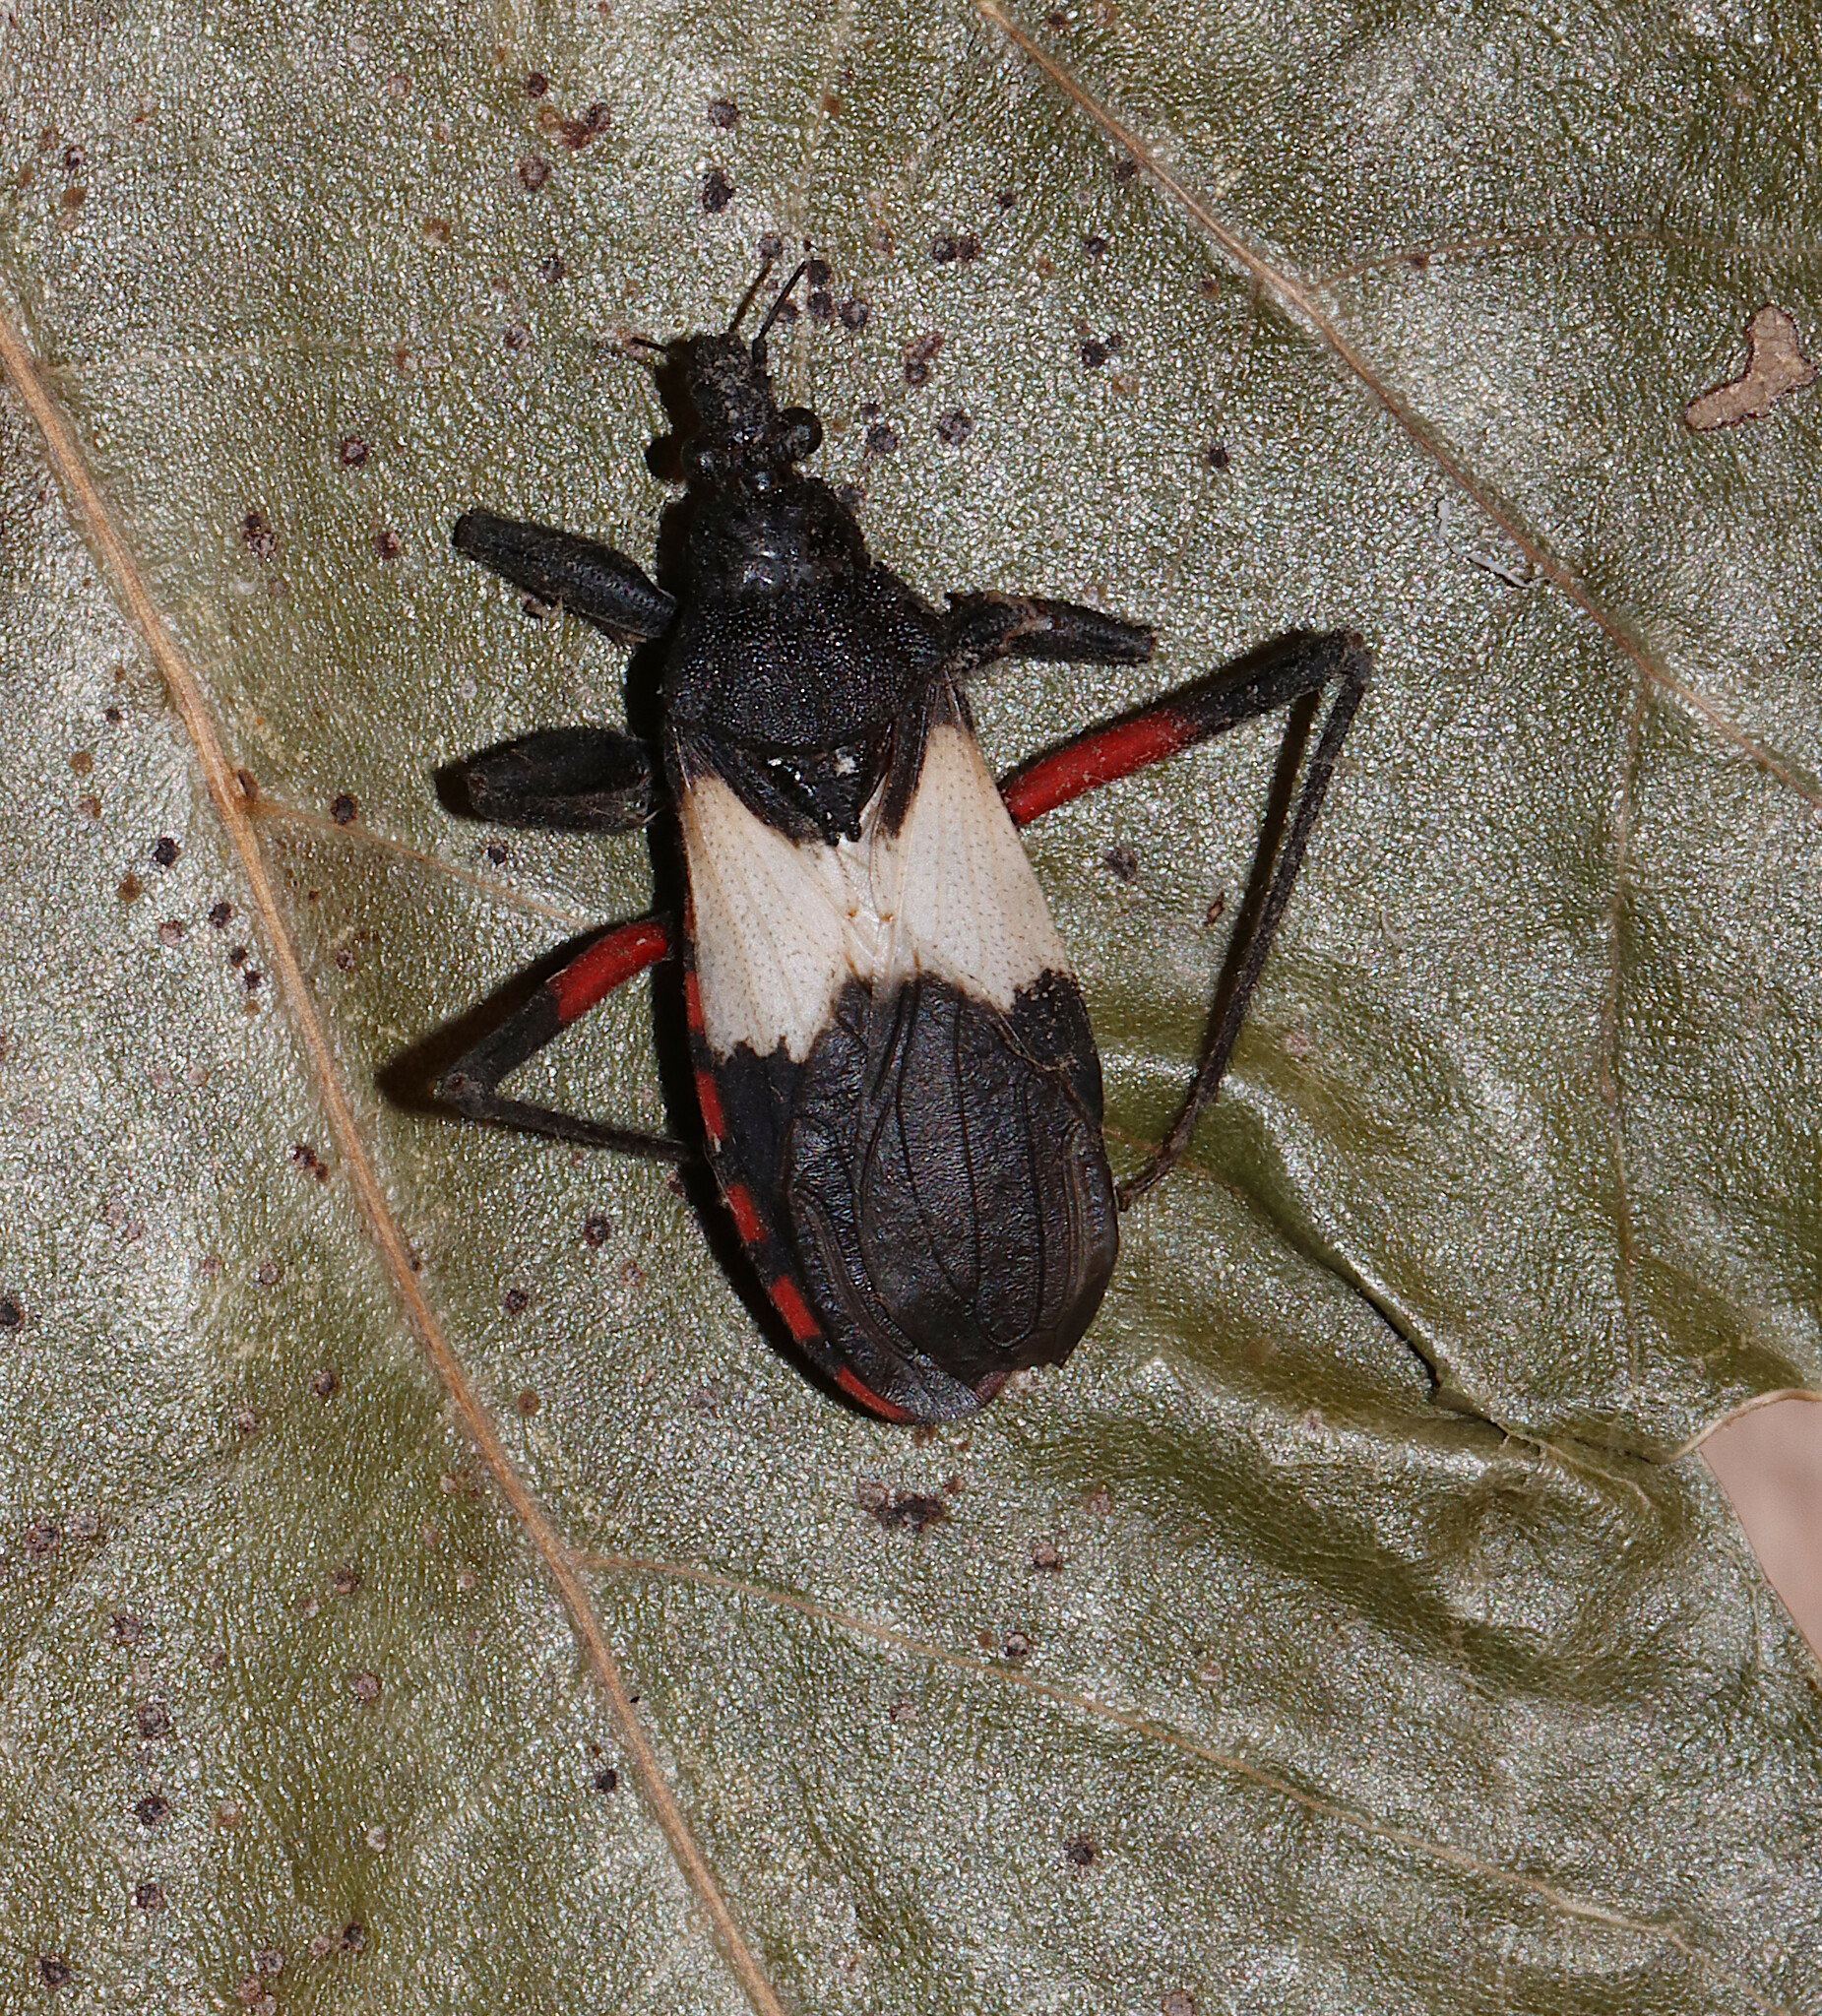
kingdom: Animalia
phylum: Arthropoda
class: Insecta
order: Hemiptera
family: Reduviidae
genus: Microtomus
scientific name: Microtomus purcis
